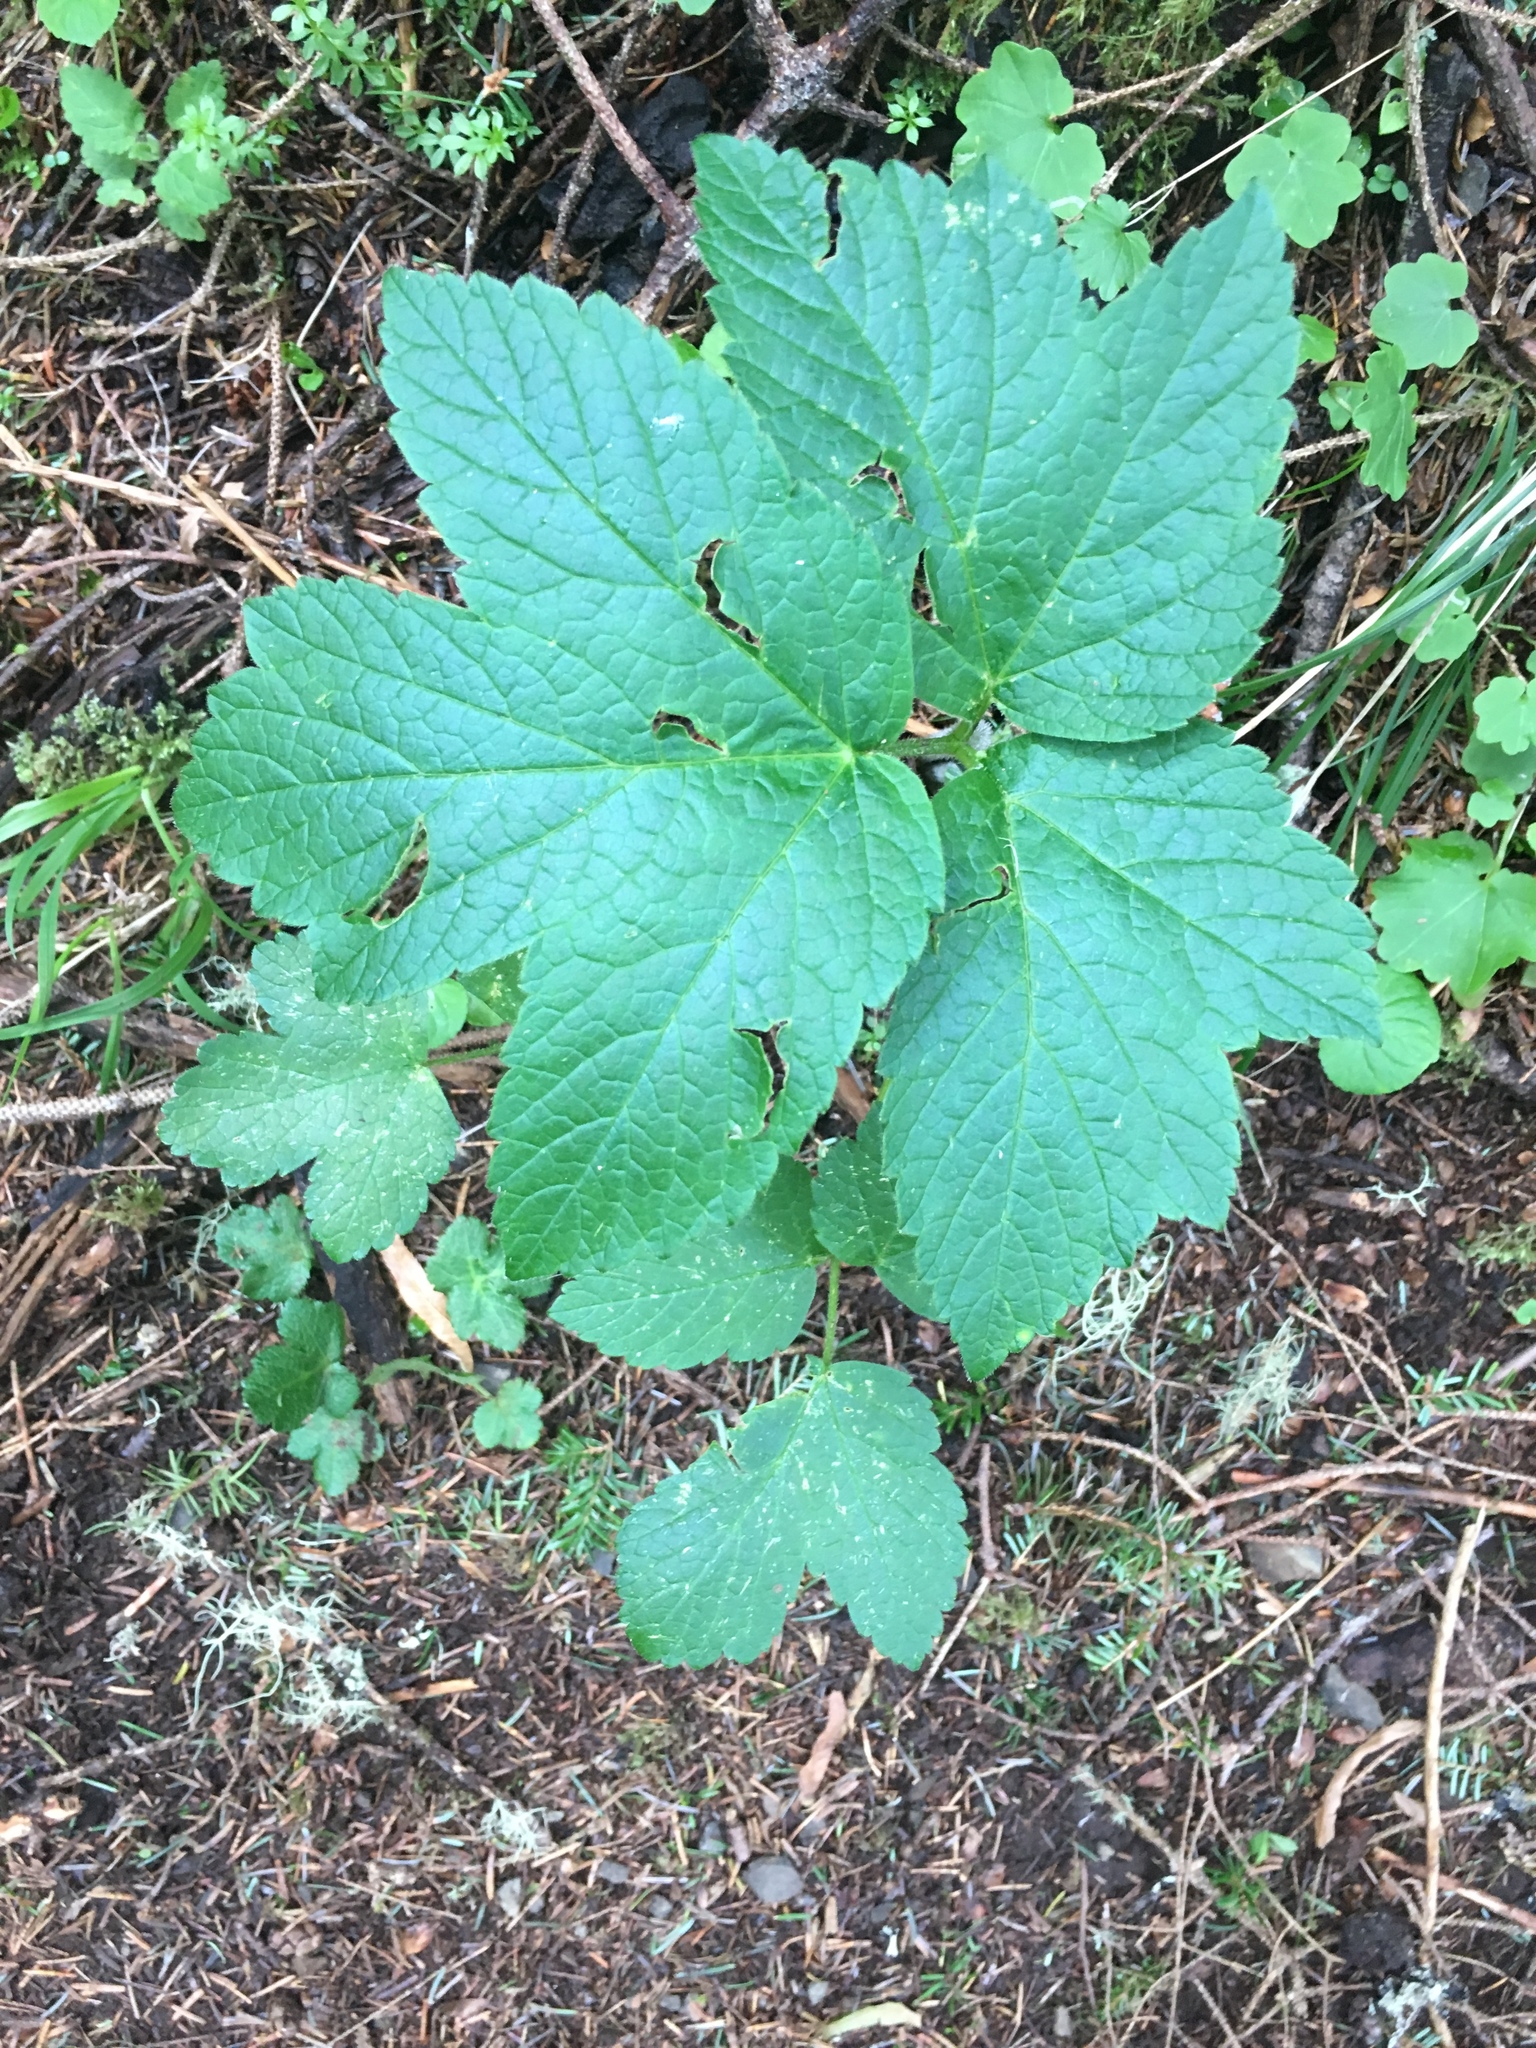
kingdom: Plantae
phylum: Tracheophyta
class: Magnoliopsida
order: Apiales
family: Apiaceae
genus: Heracleum
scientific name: Heracleum maximum
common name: American cow parsnip
